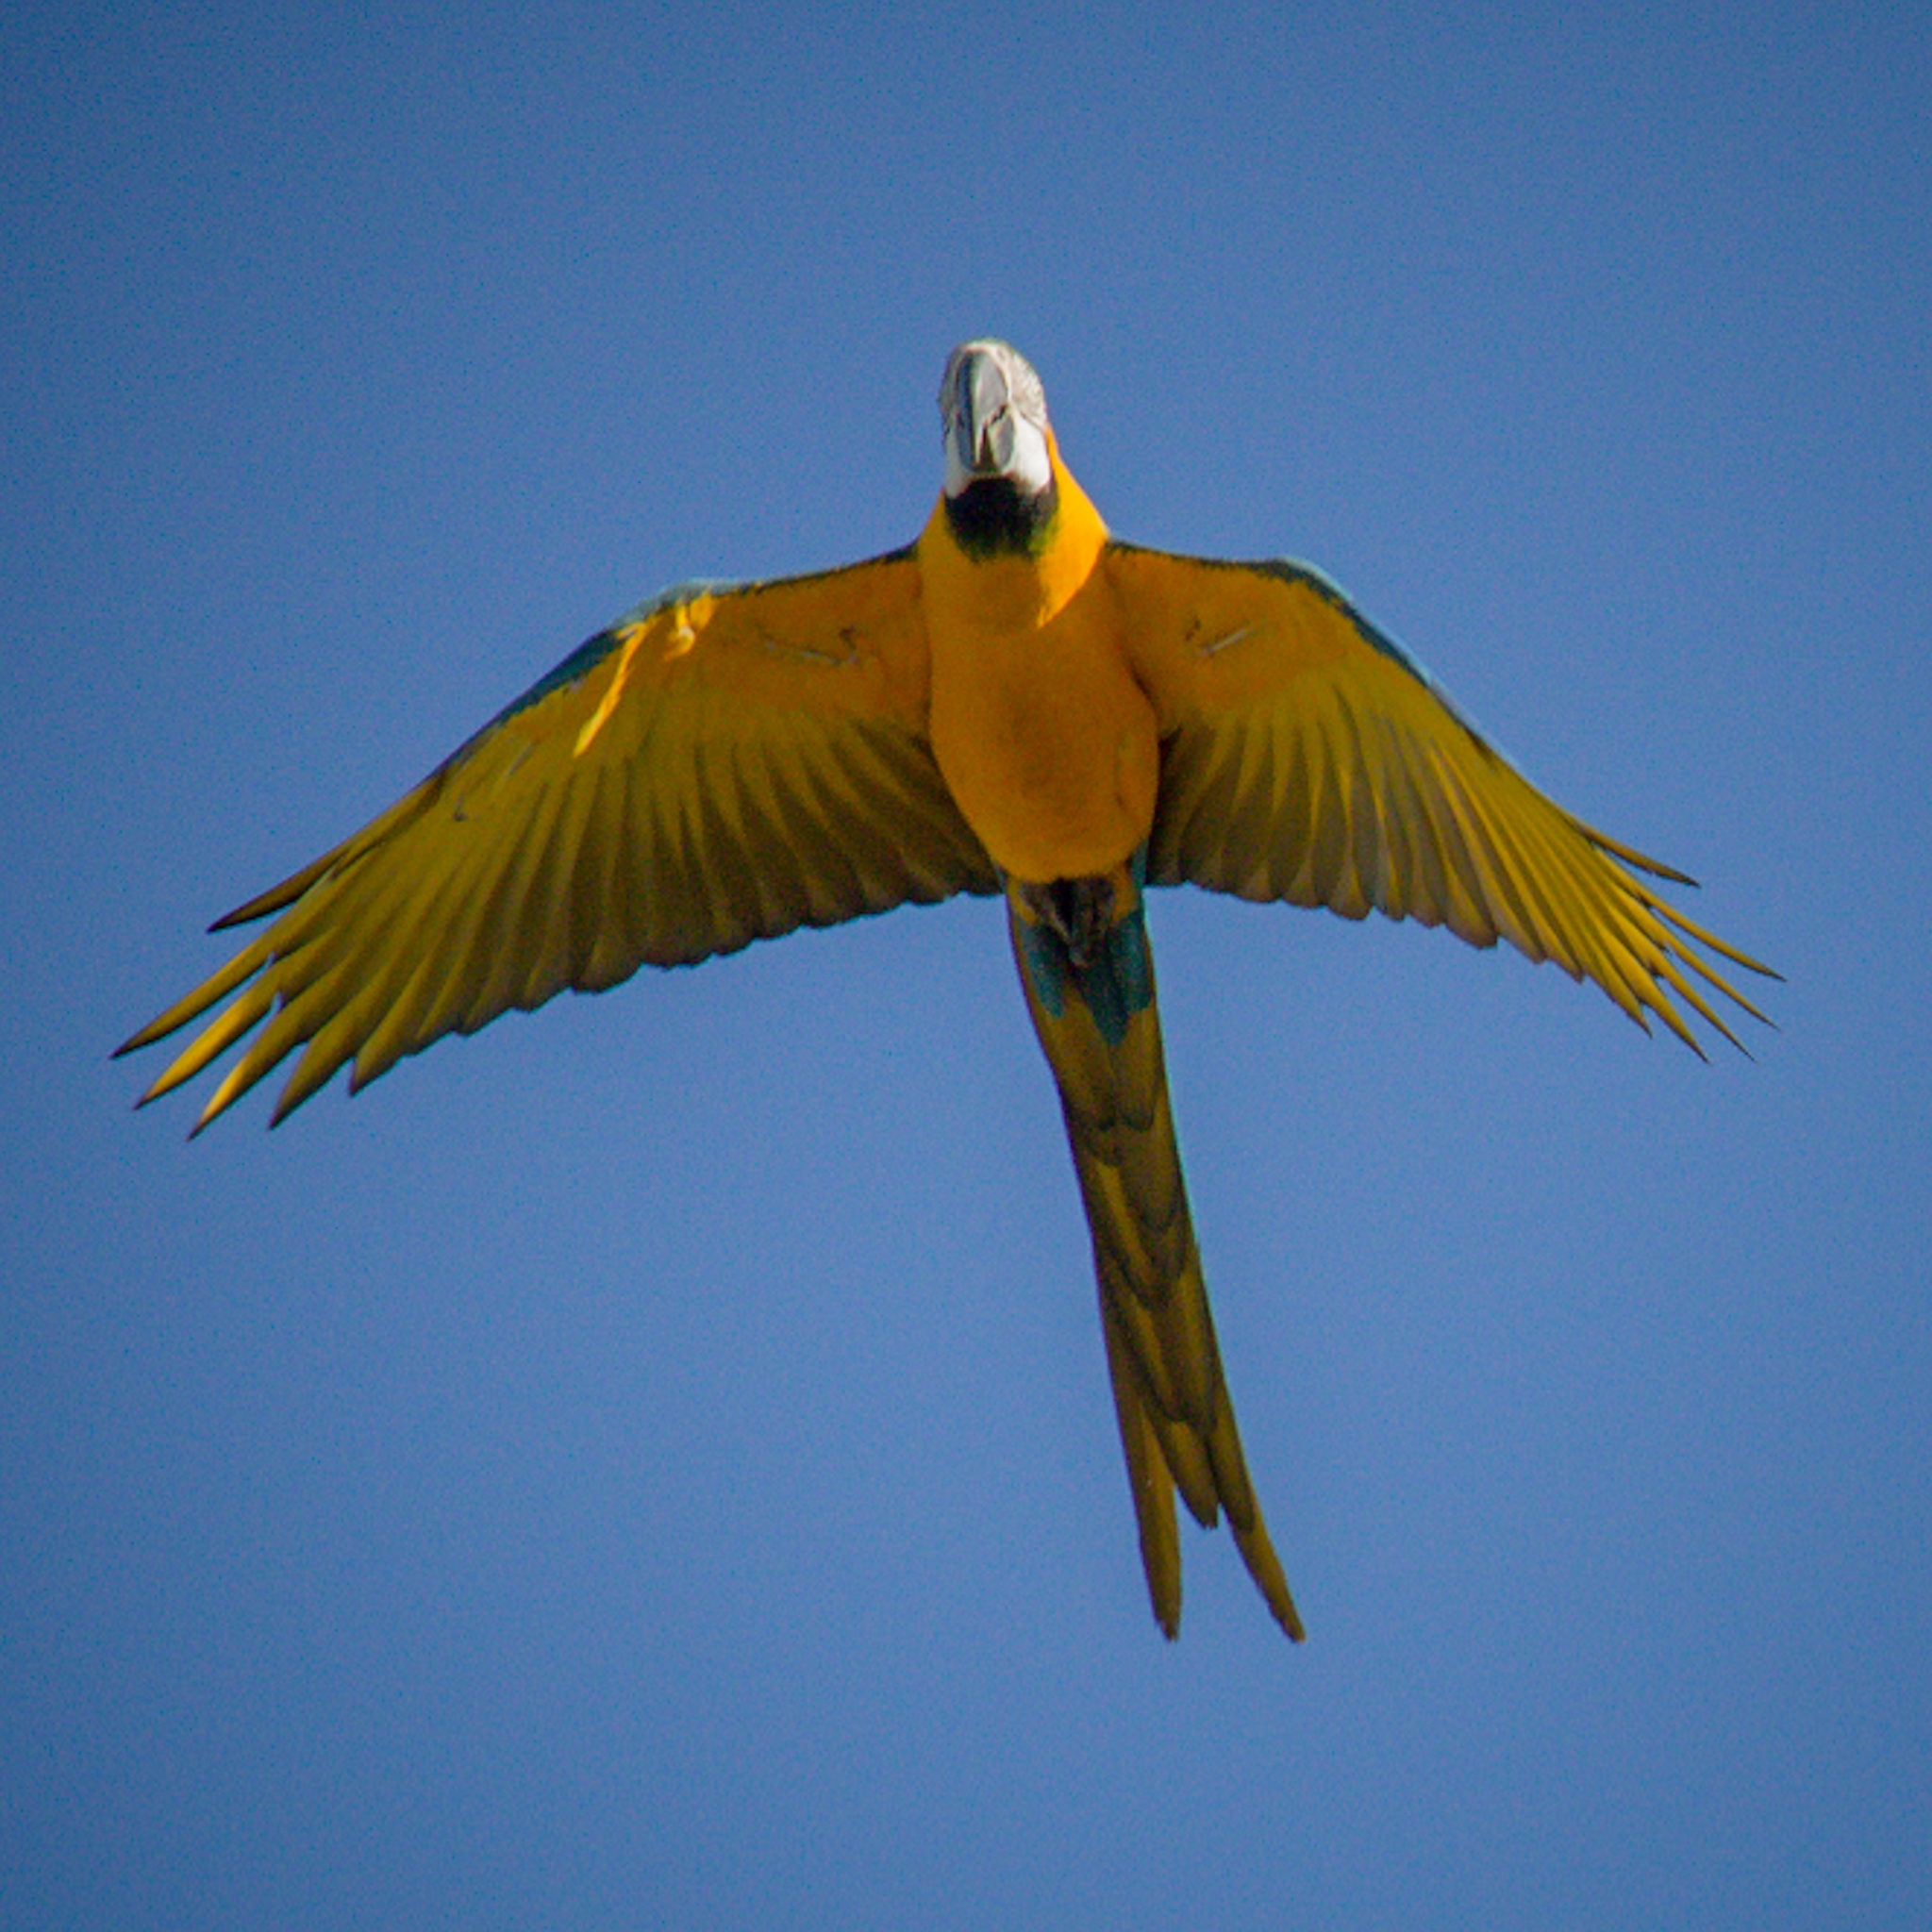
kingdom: Animalia
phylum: Chordata
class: Aves
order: Psittaciformes
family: Psittacidae
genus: Ara
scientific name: Ara ararauna
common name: Blue-and-yellow macaw
